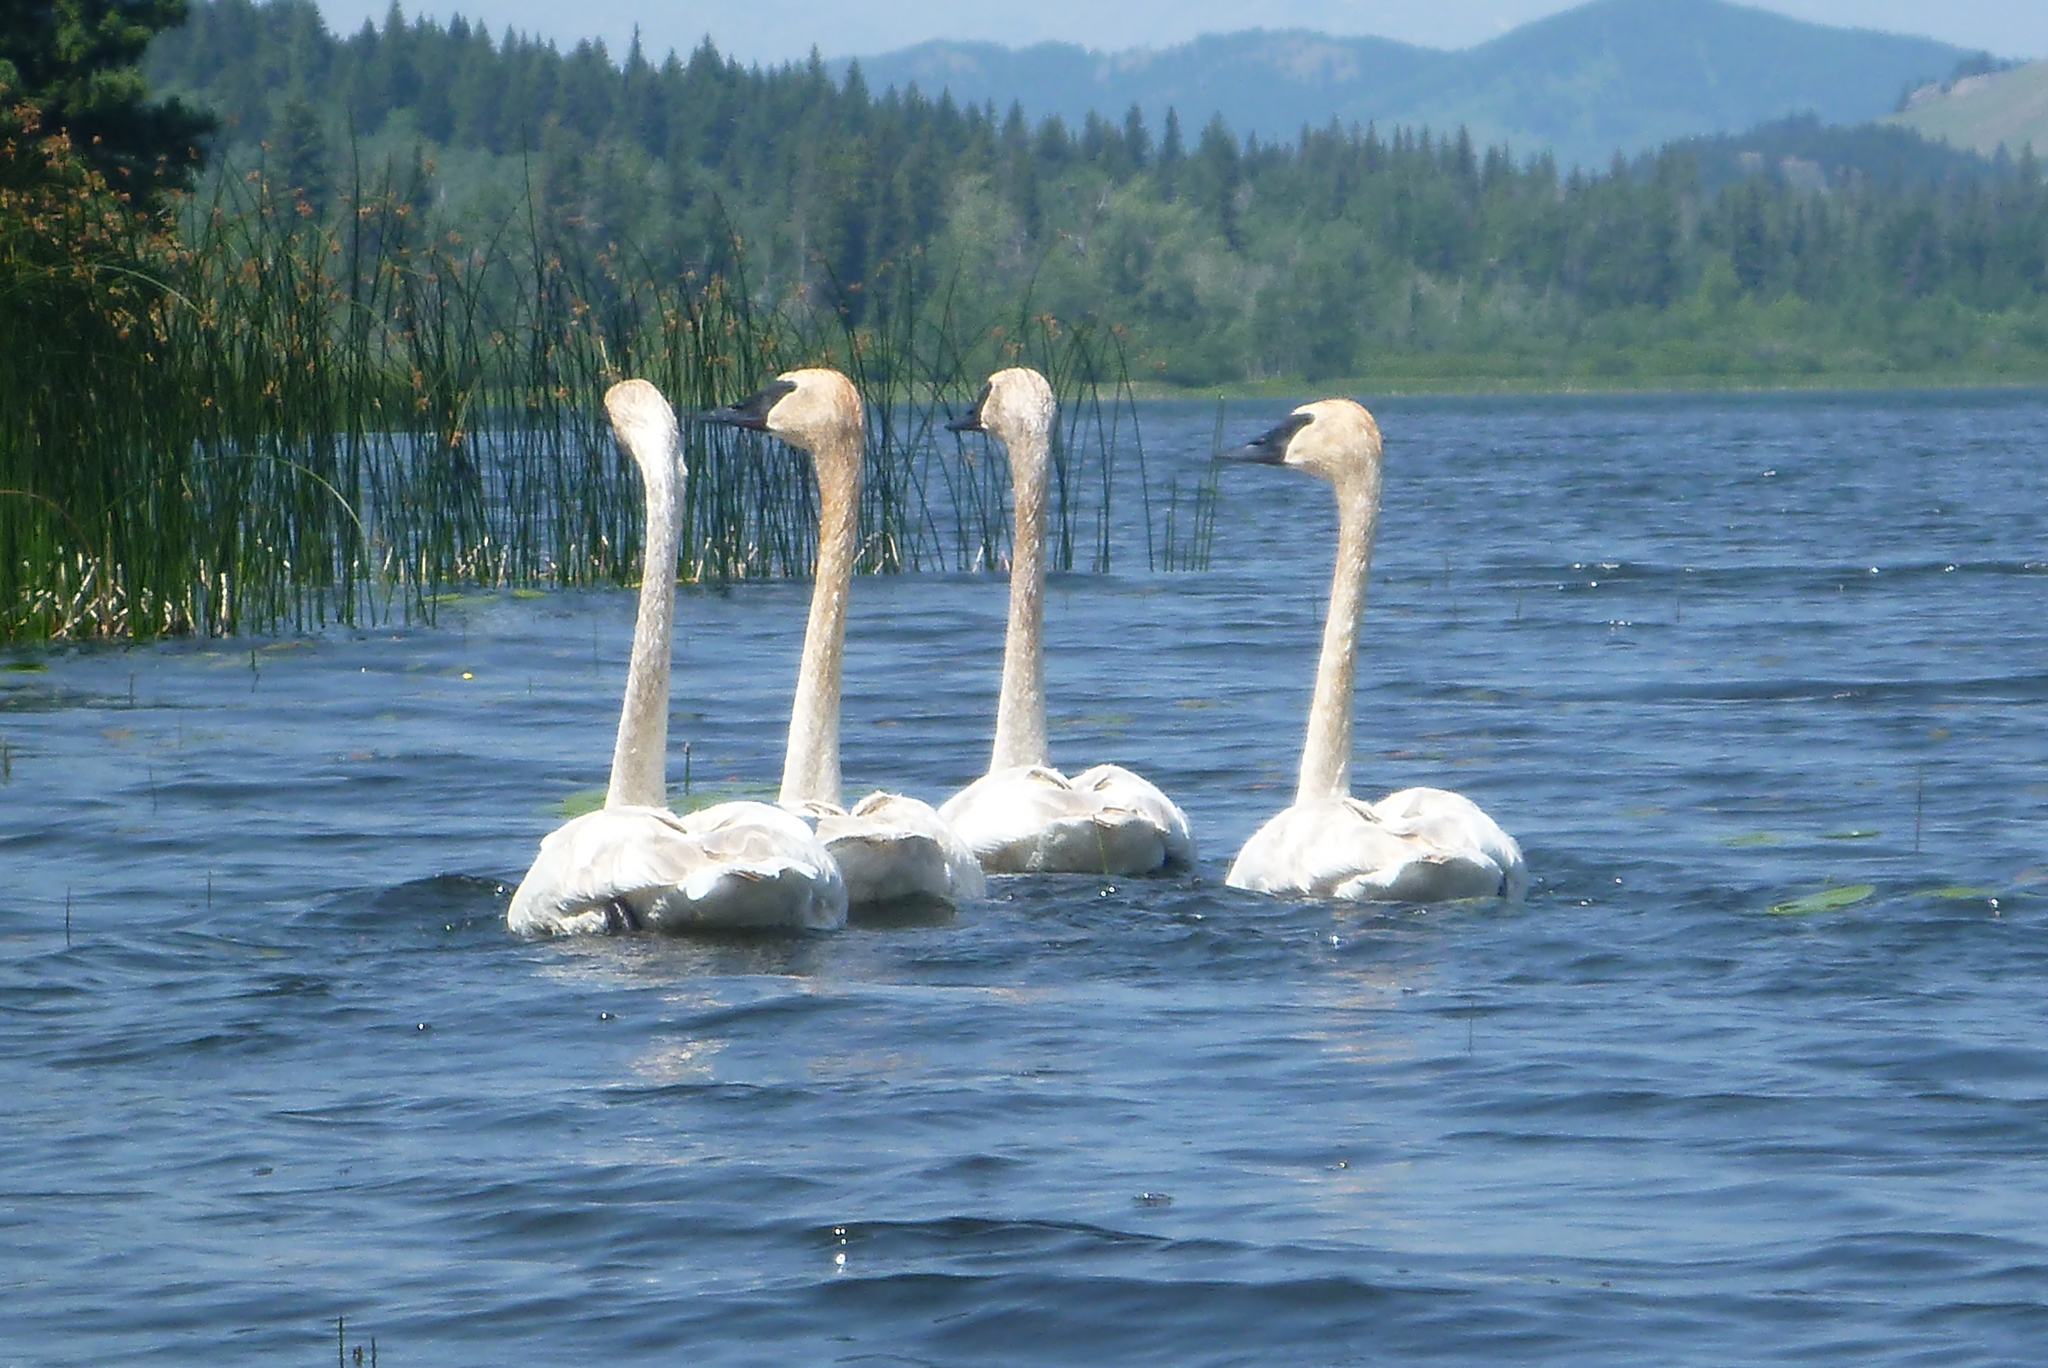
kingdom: Animalia
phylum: Chordata
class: Aves
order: Anseriformes
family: Anatidae
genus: Cygnus
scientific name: Cygnus buccinator
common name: Trumpeter swan
